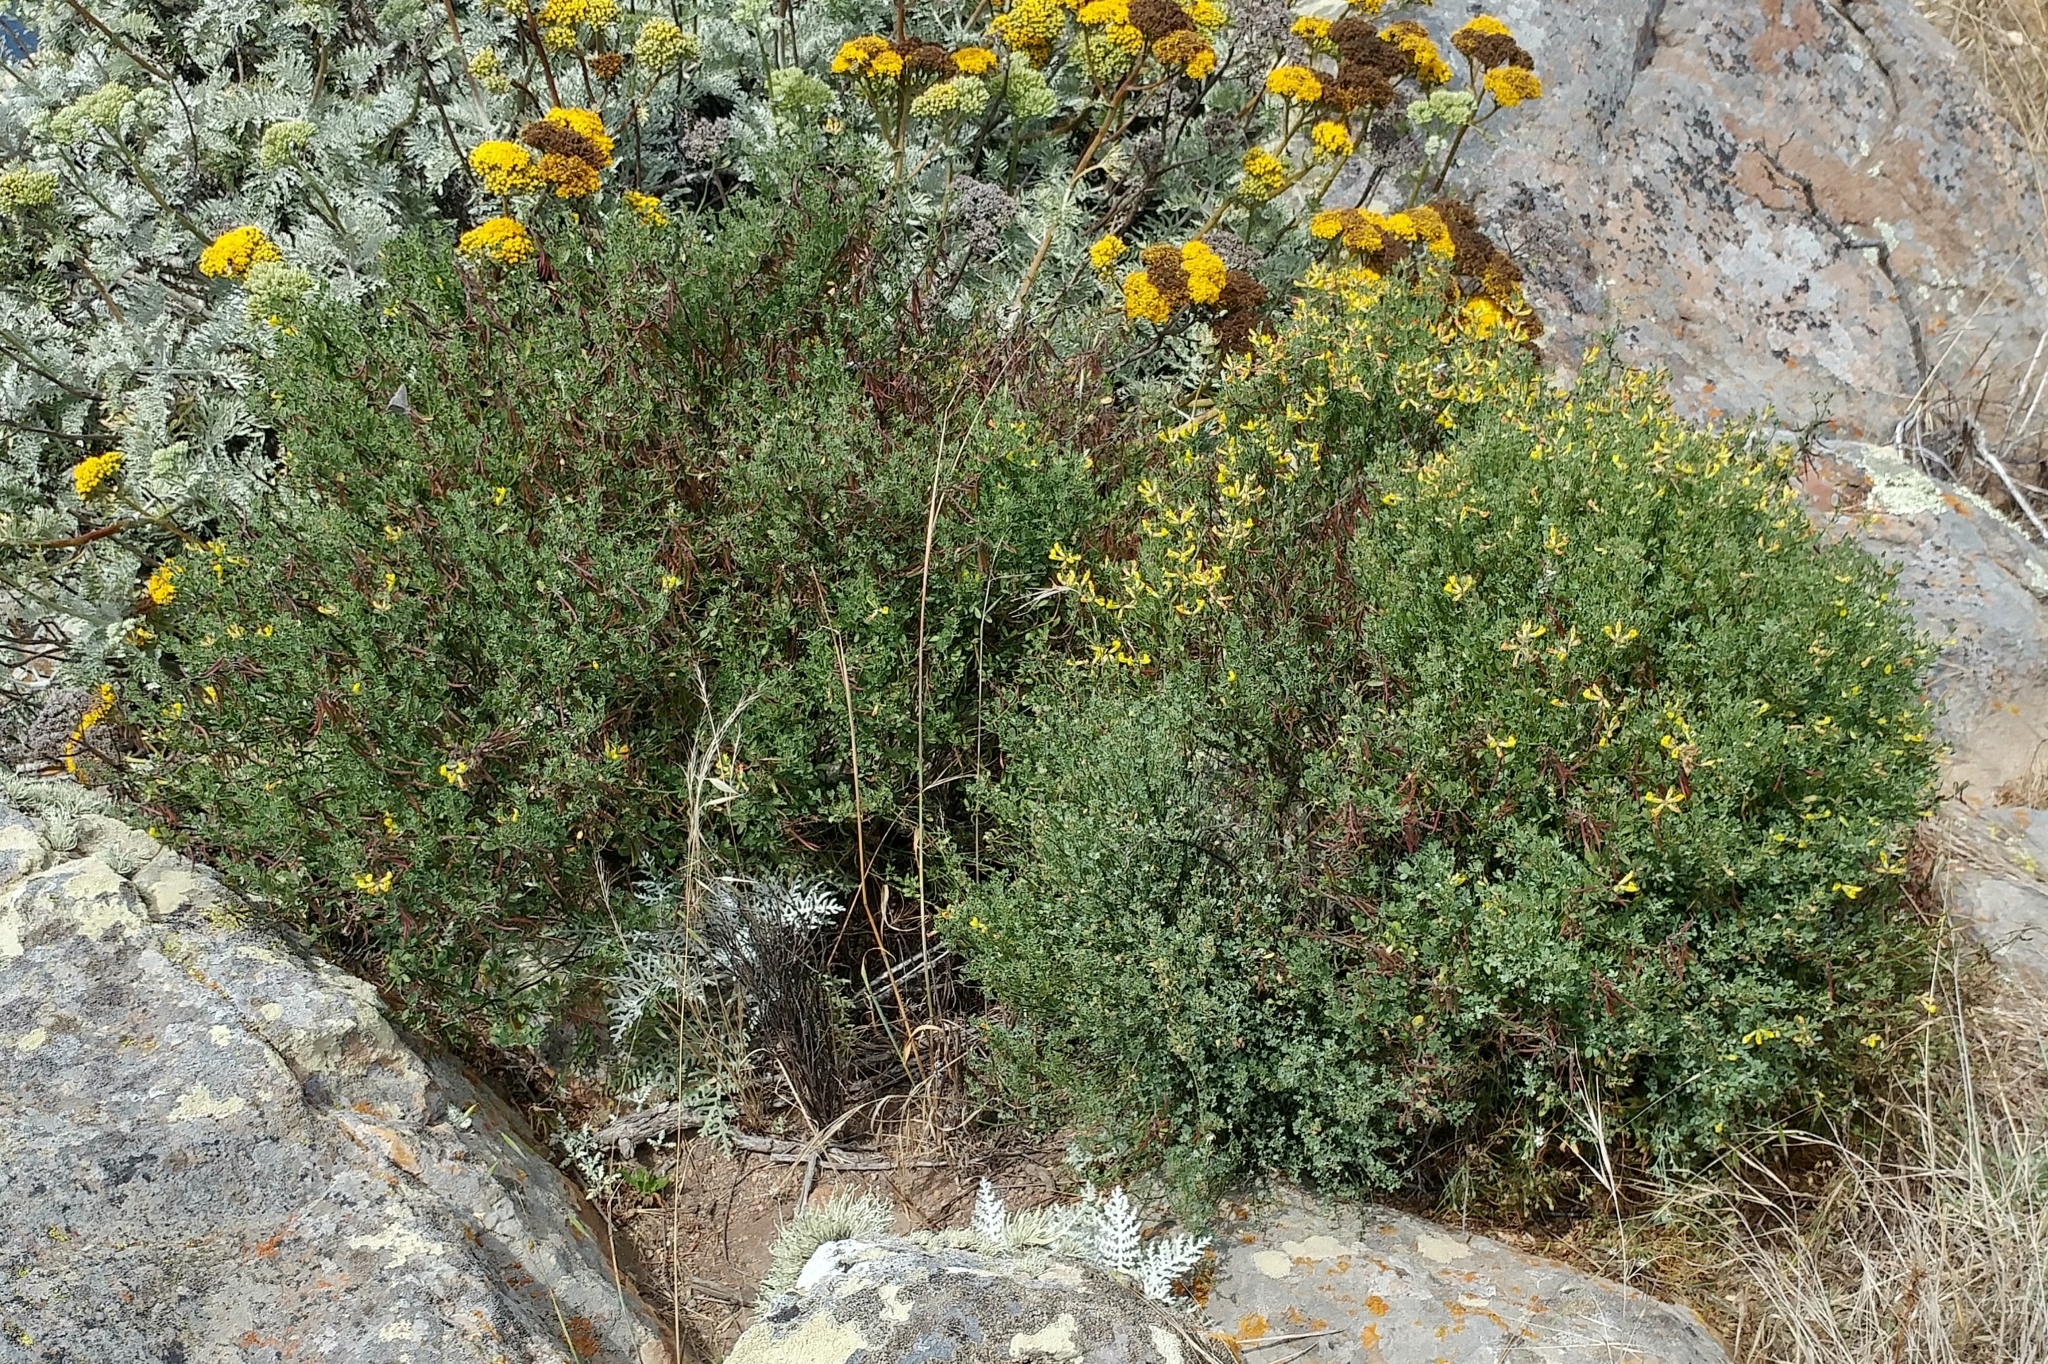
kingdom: Plantae
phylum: Tracheophyta
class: Magnoliopsida
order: Fabales
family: Fabaceae
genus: Acmispon
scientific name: Acmispon dendroideus
